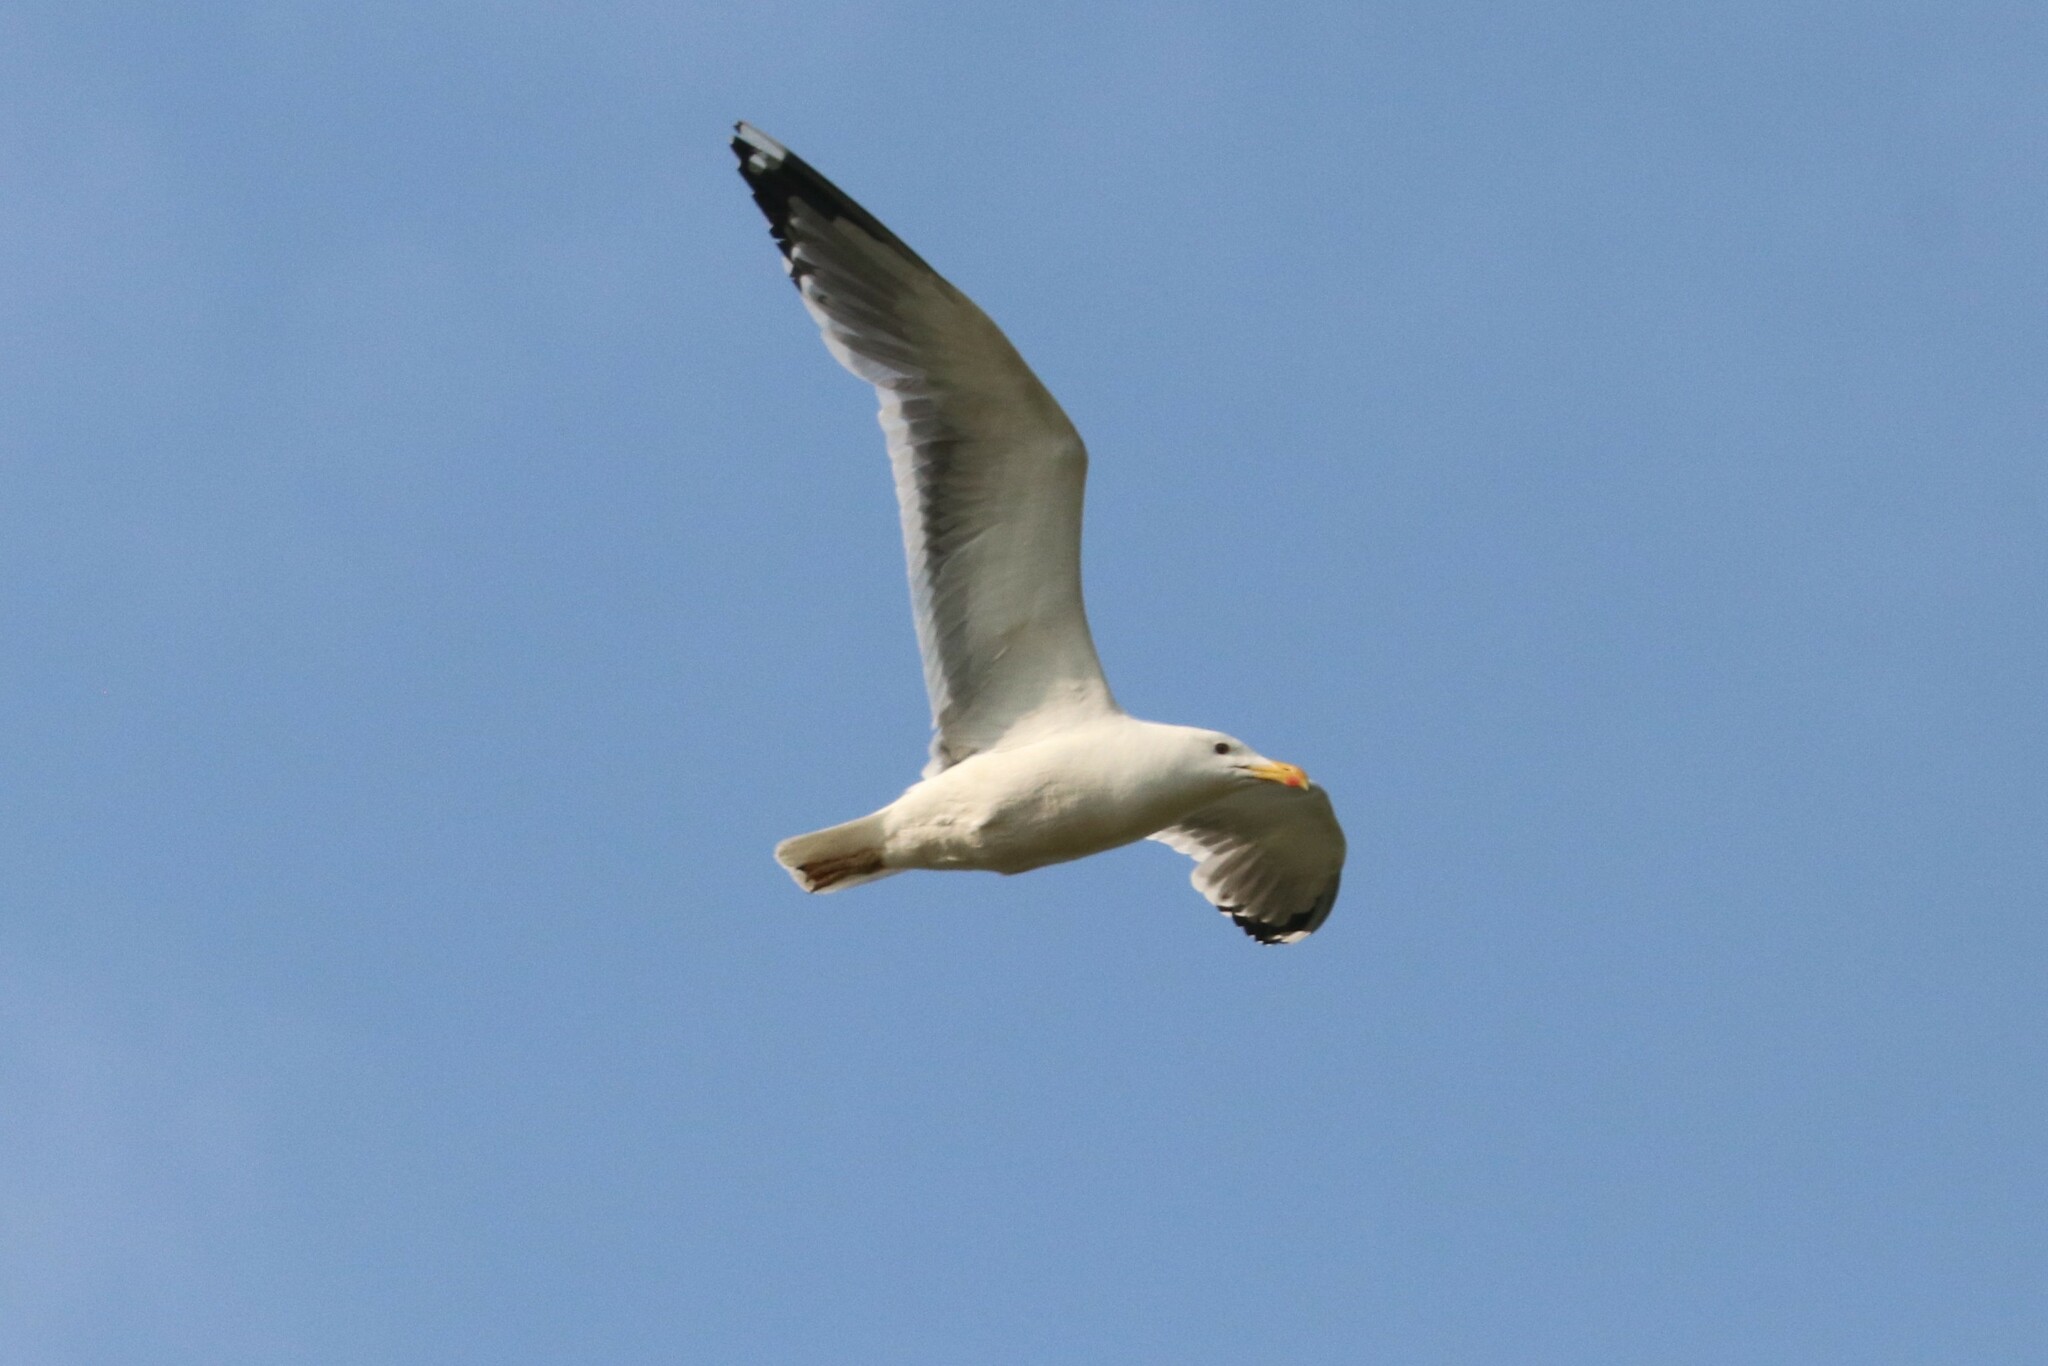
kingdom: Animalia
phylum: Chordata
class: Aves
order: Charadriiformes
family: Laridae
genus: Larus
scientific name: Larus cachinnans
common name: Caspian gull
